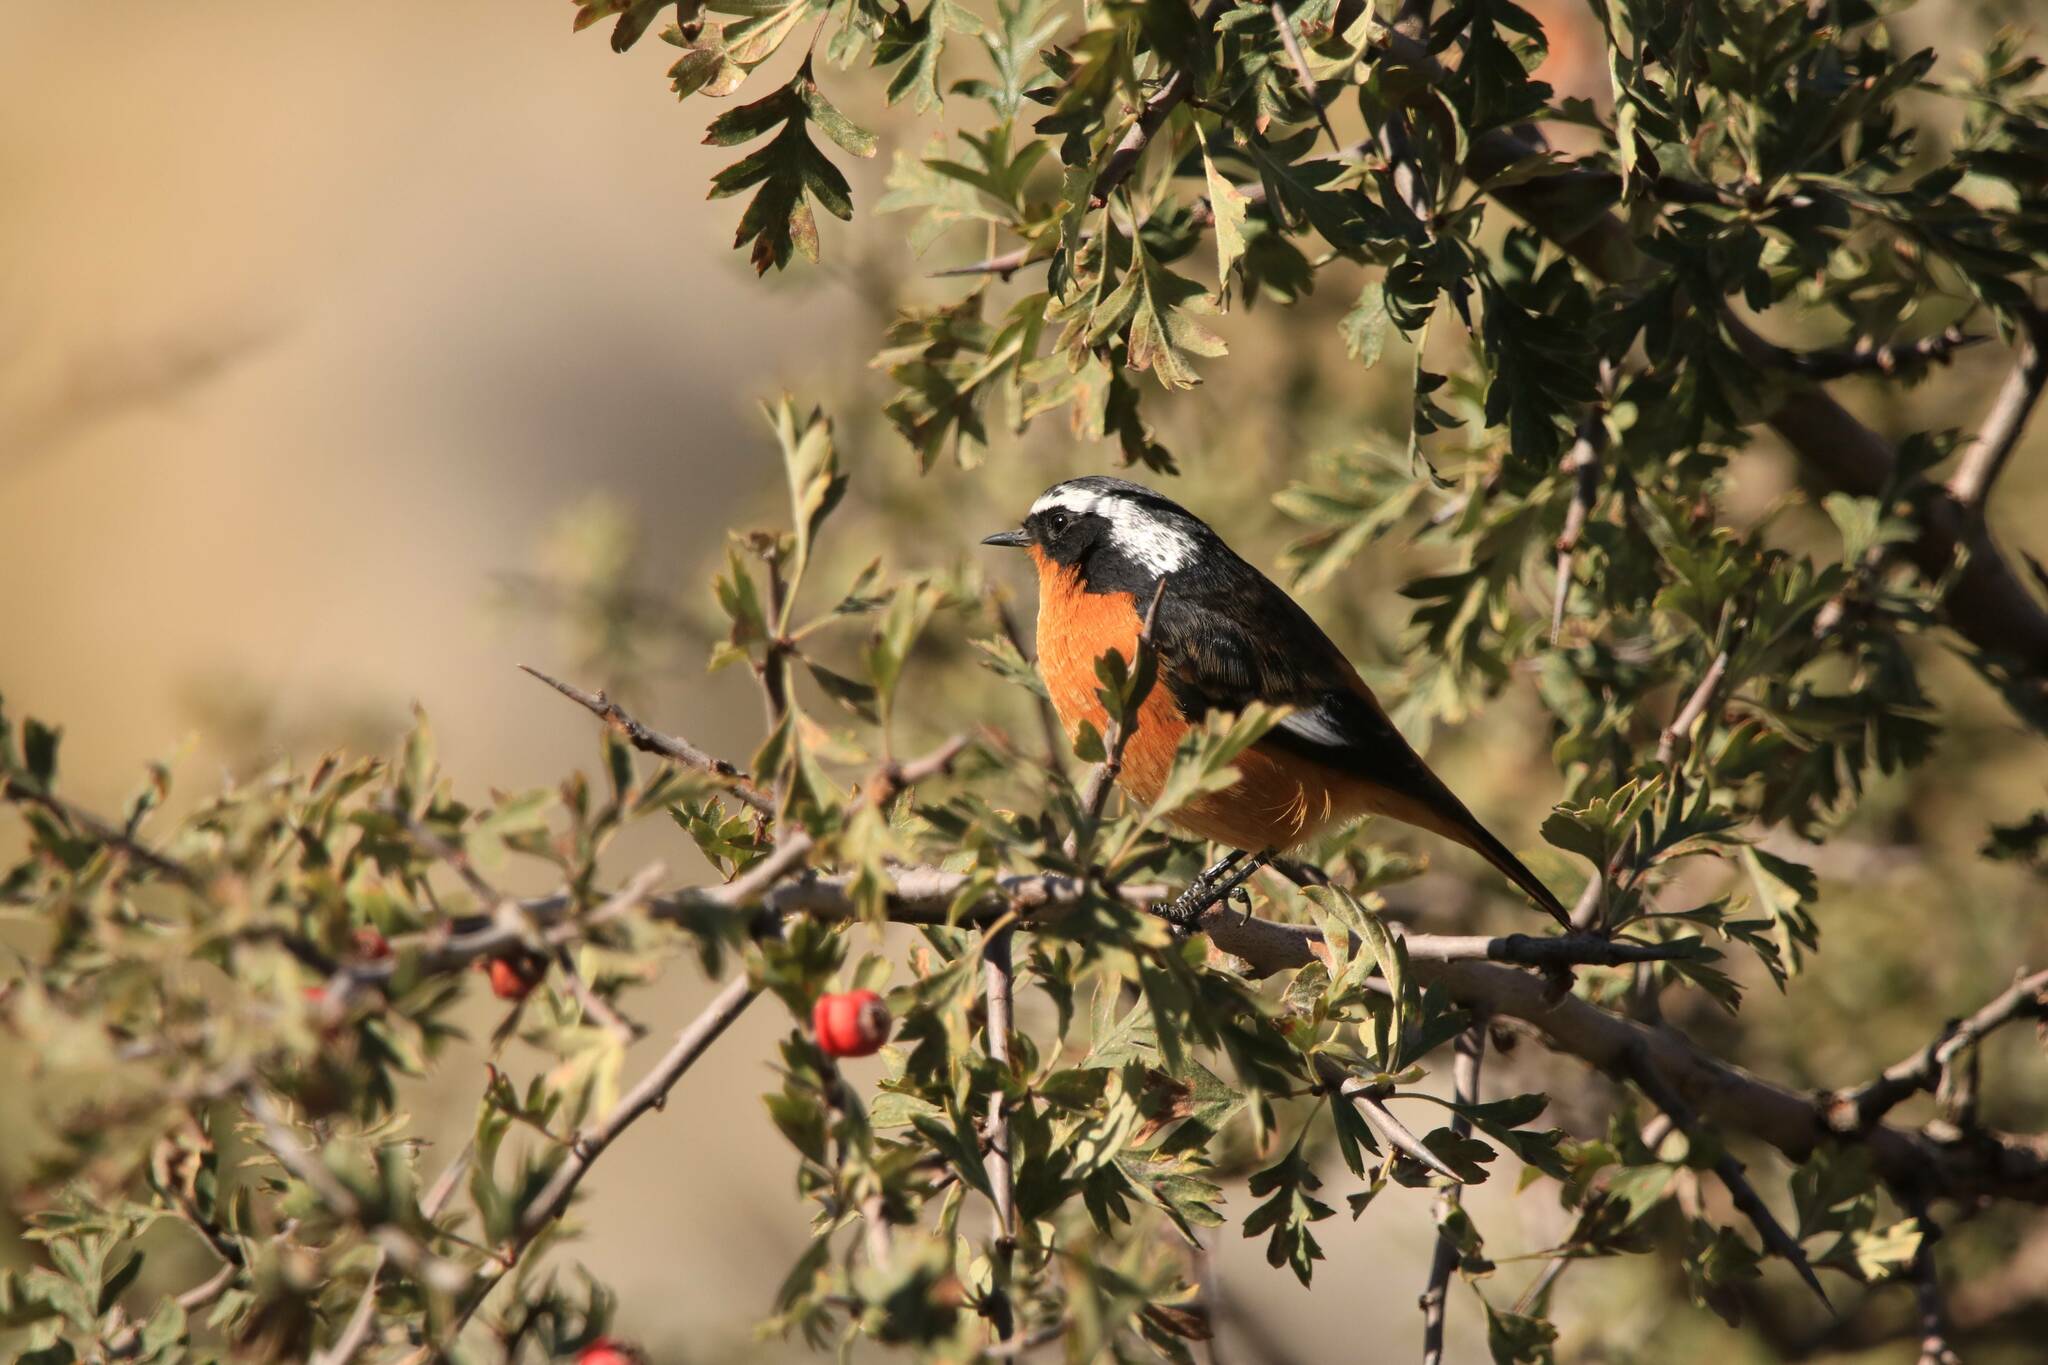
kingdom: Animalia
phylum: Chordata
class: Aves
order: Passeriformes
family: Muscicapidae
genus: Phoenicurus
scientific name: Phoenicurus moussieri
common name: Moussier's redstart
